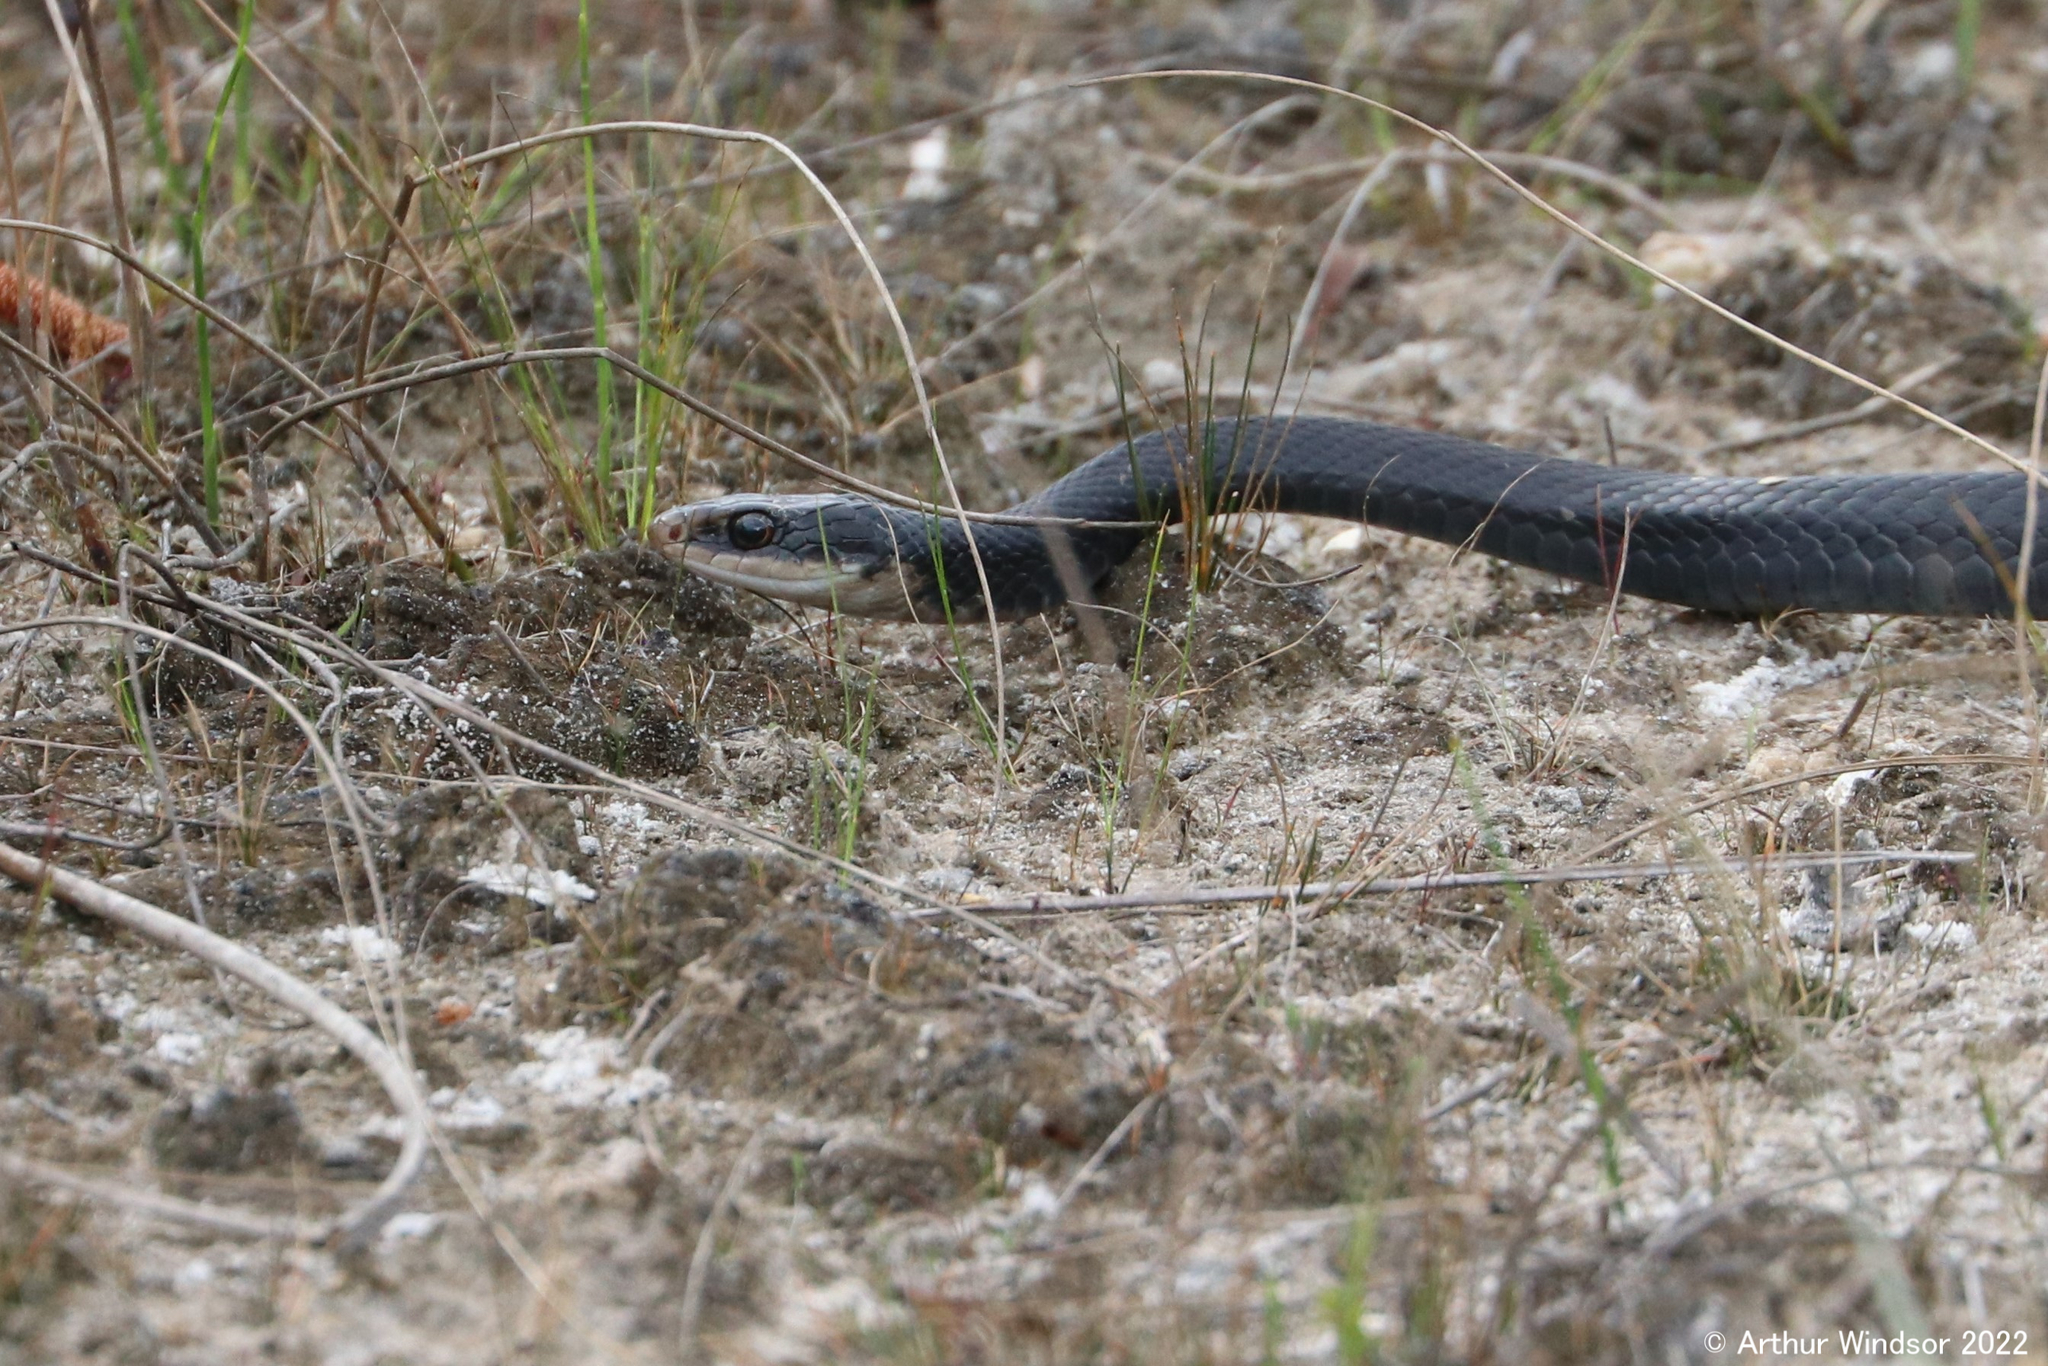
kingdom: Animalia
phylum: Chordata
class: Squamata
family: Colubridae
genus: Coluber
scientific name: Coluber constrictor
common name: Eastern racer
